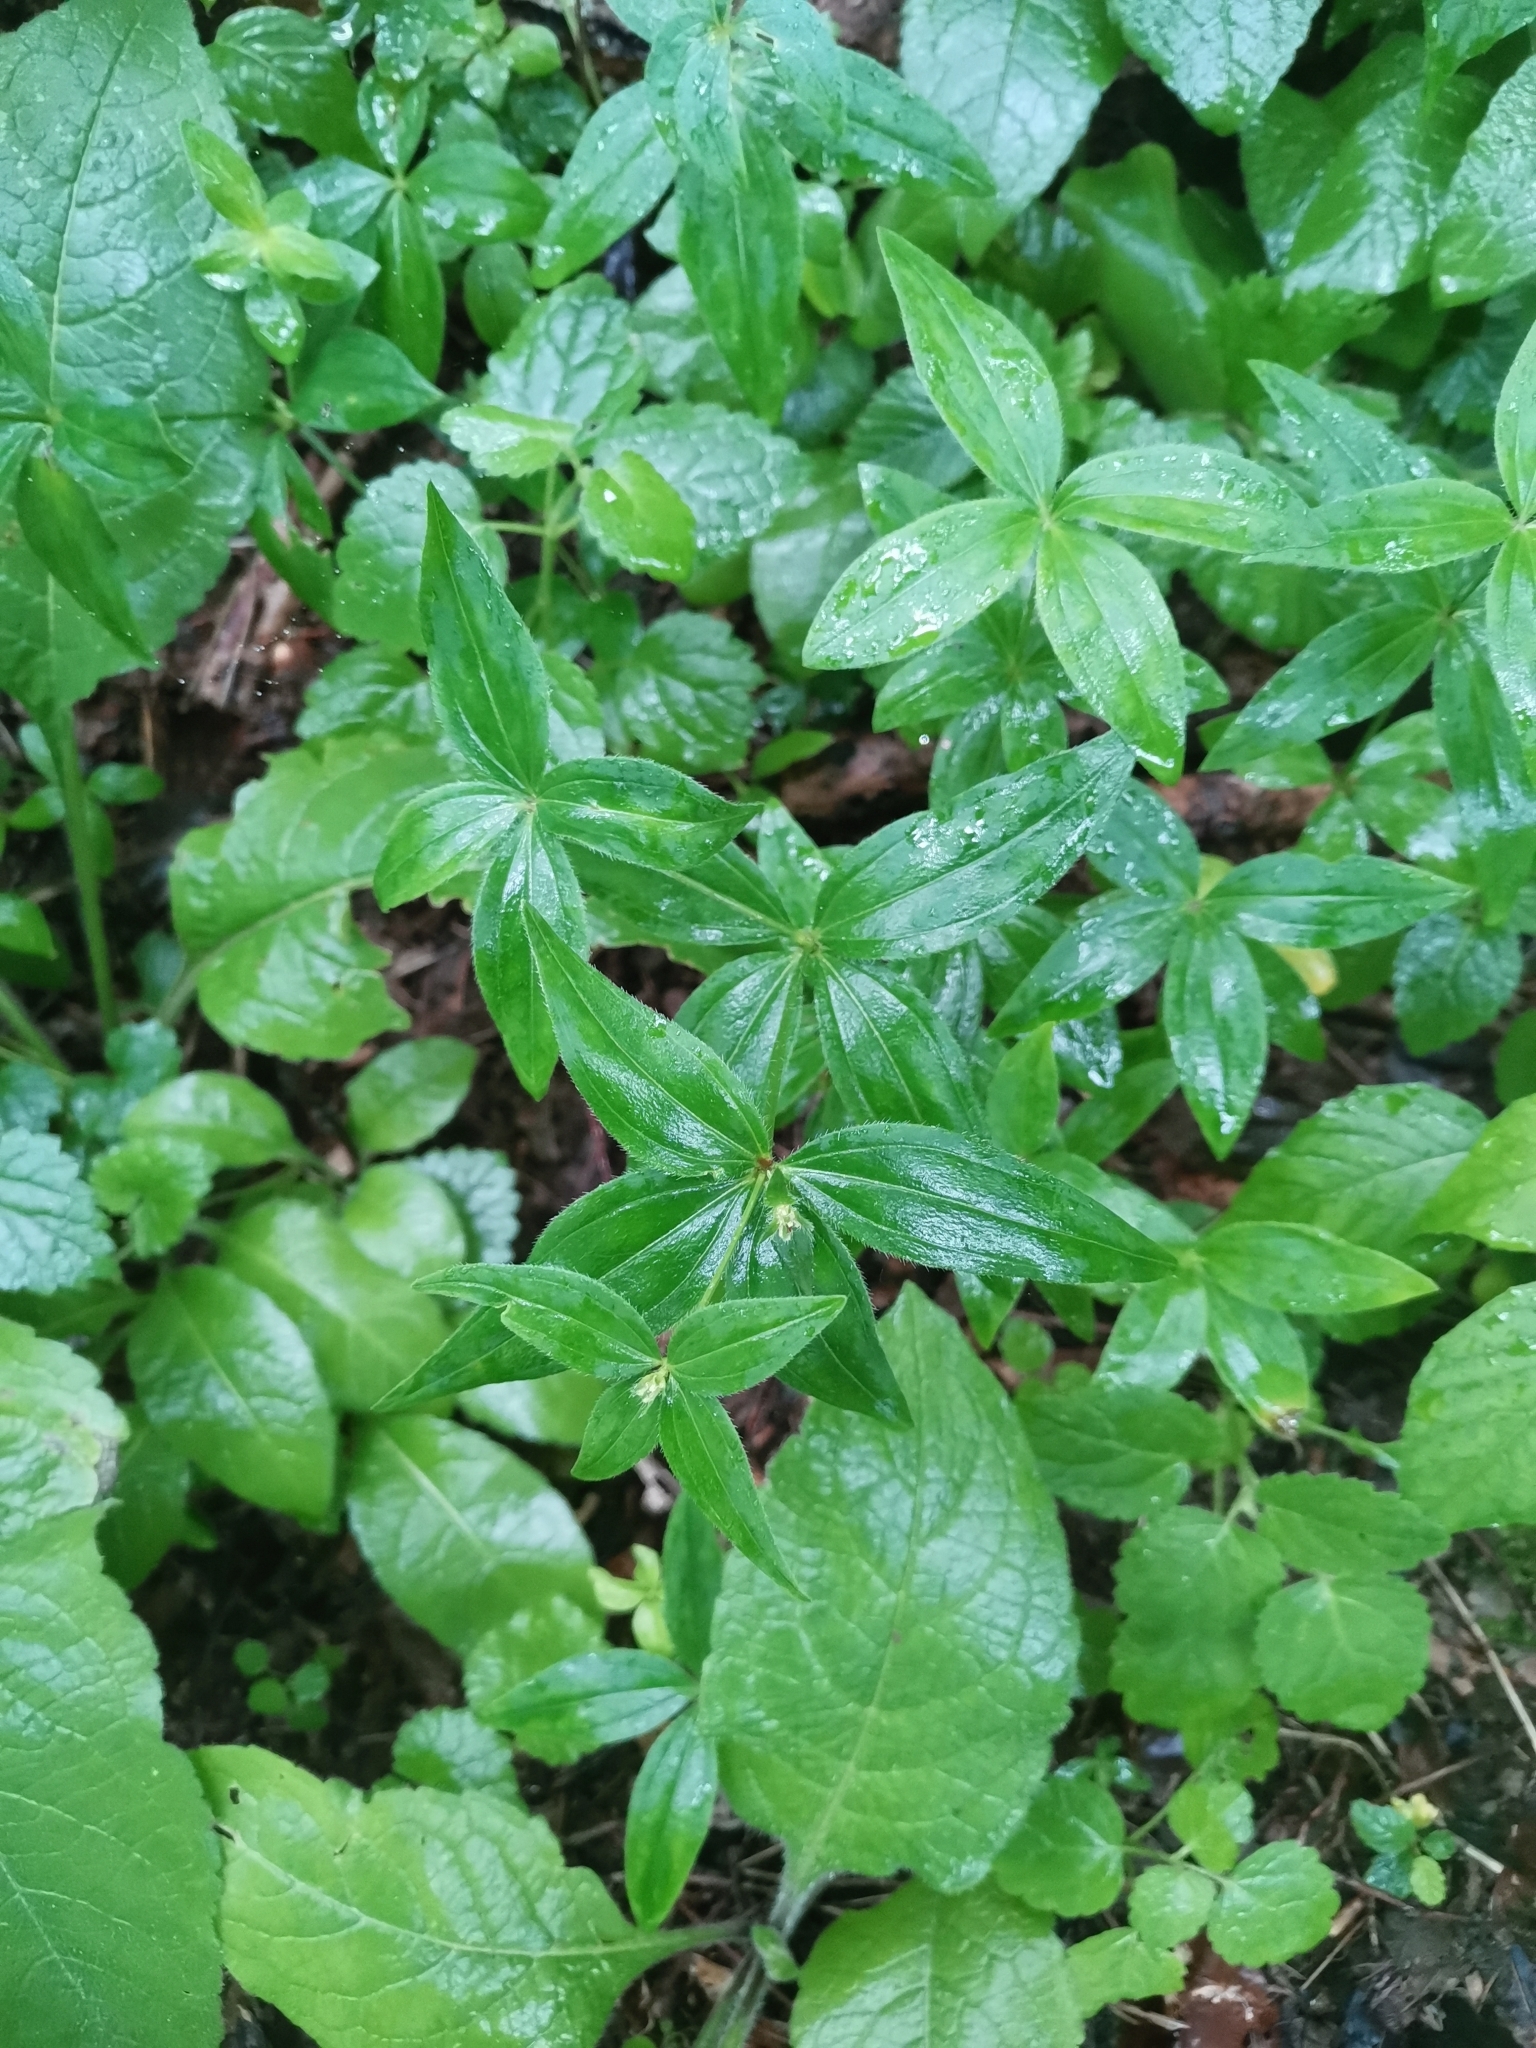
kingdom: Plantae
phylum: Tracheophyta
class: Magnoliopsida
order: Gentianales
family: Rubiaceae
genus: Asperula
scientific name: Asperula taurina
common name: Pink woodruff
